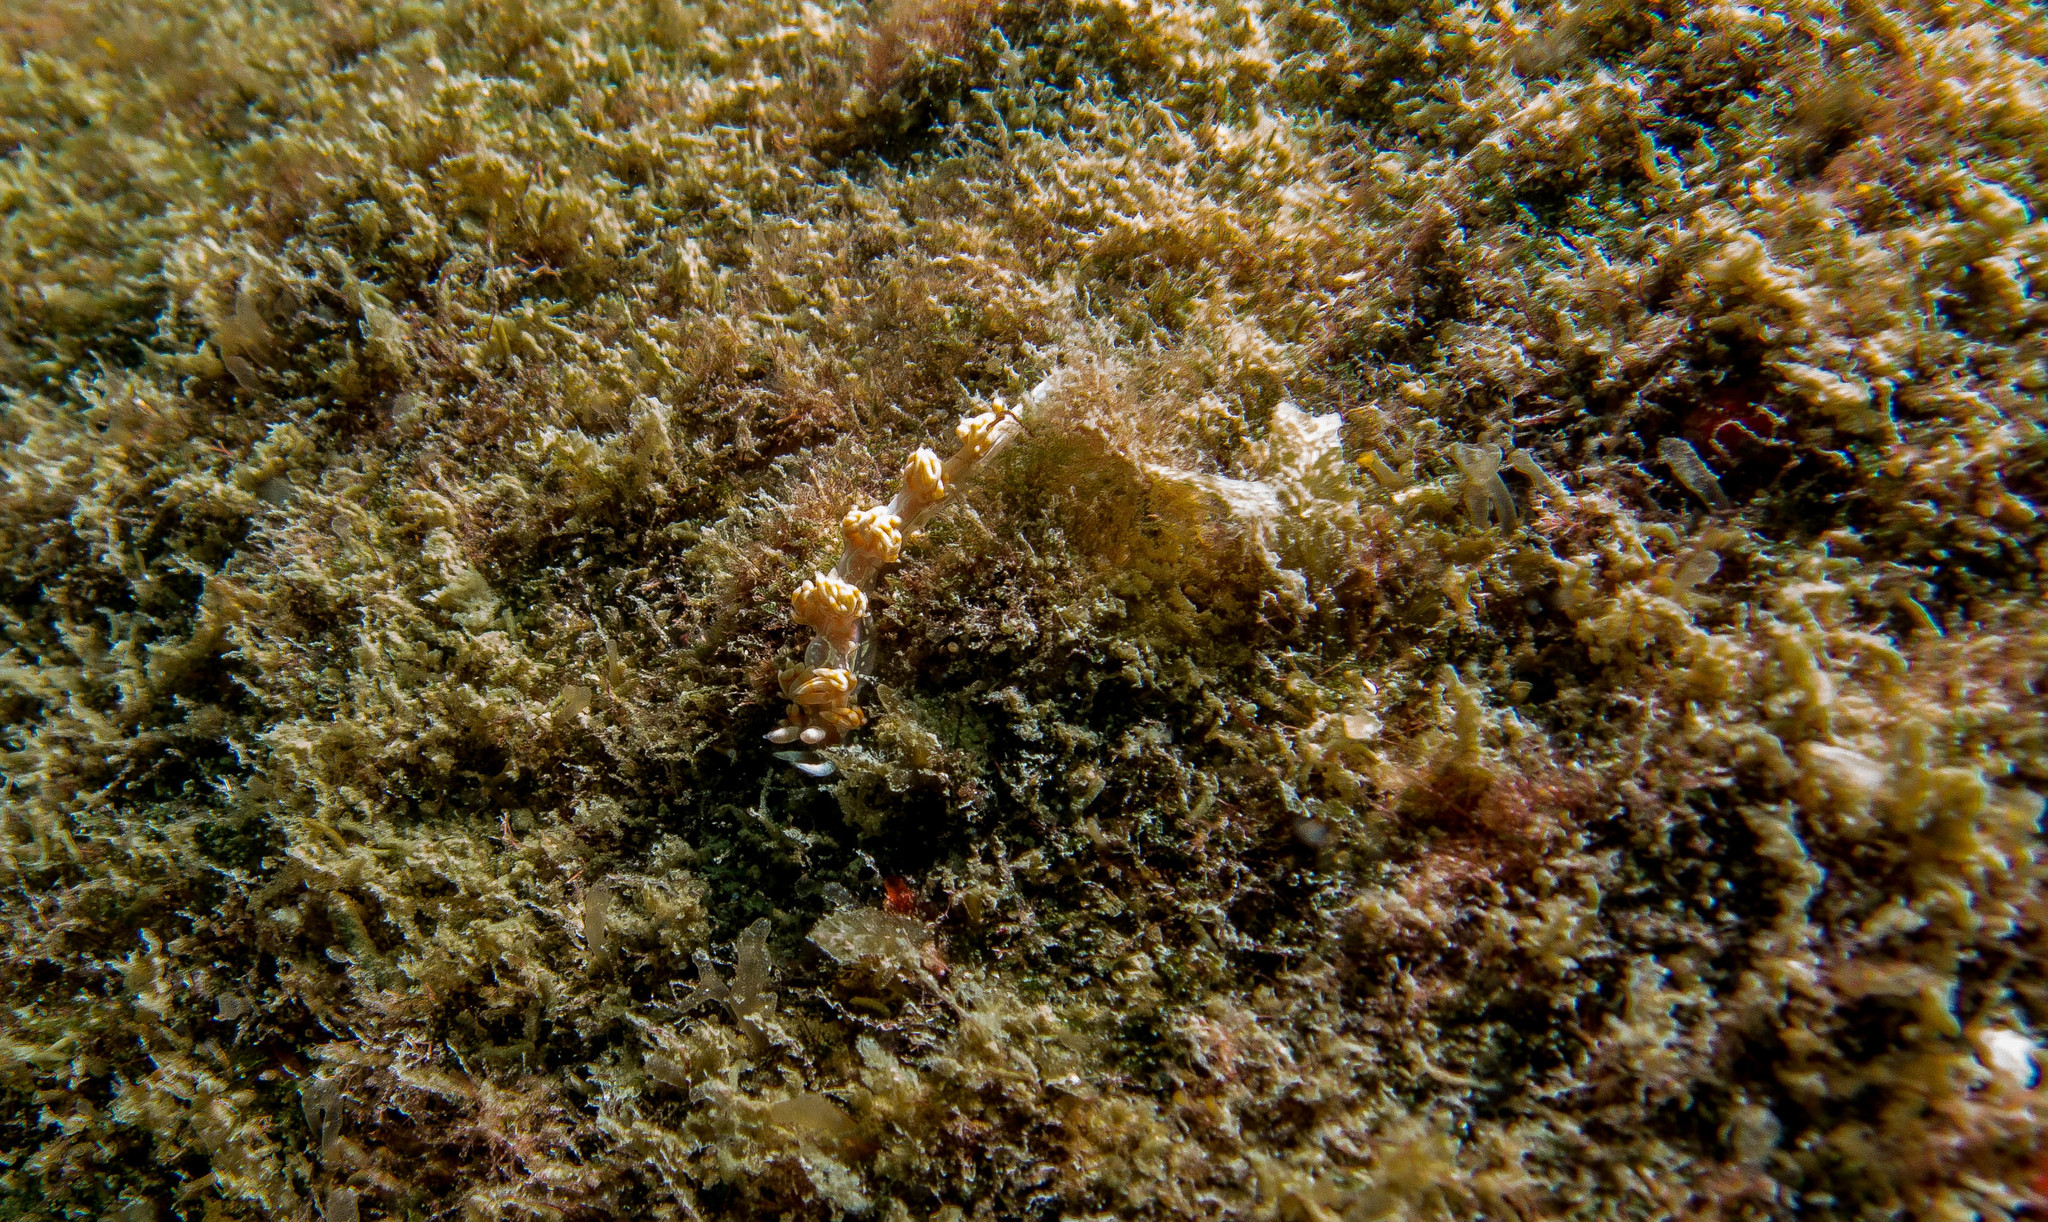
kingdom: Animalia
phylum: Mollusca
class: Gastropoda
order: Nudibranchia
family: Flabellinidae
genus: Flabellina
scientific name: Flabellina engeli
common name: Engel's flabellina
